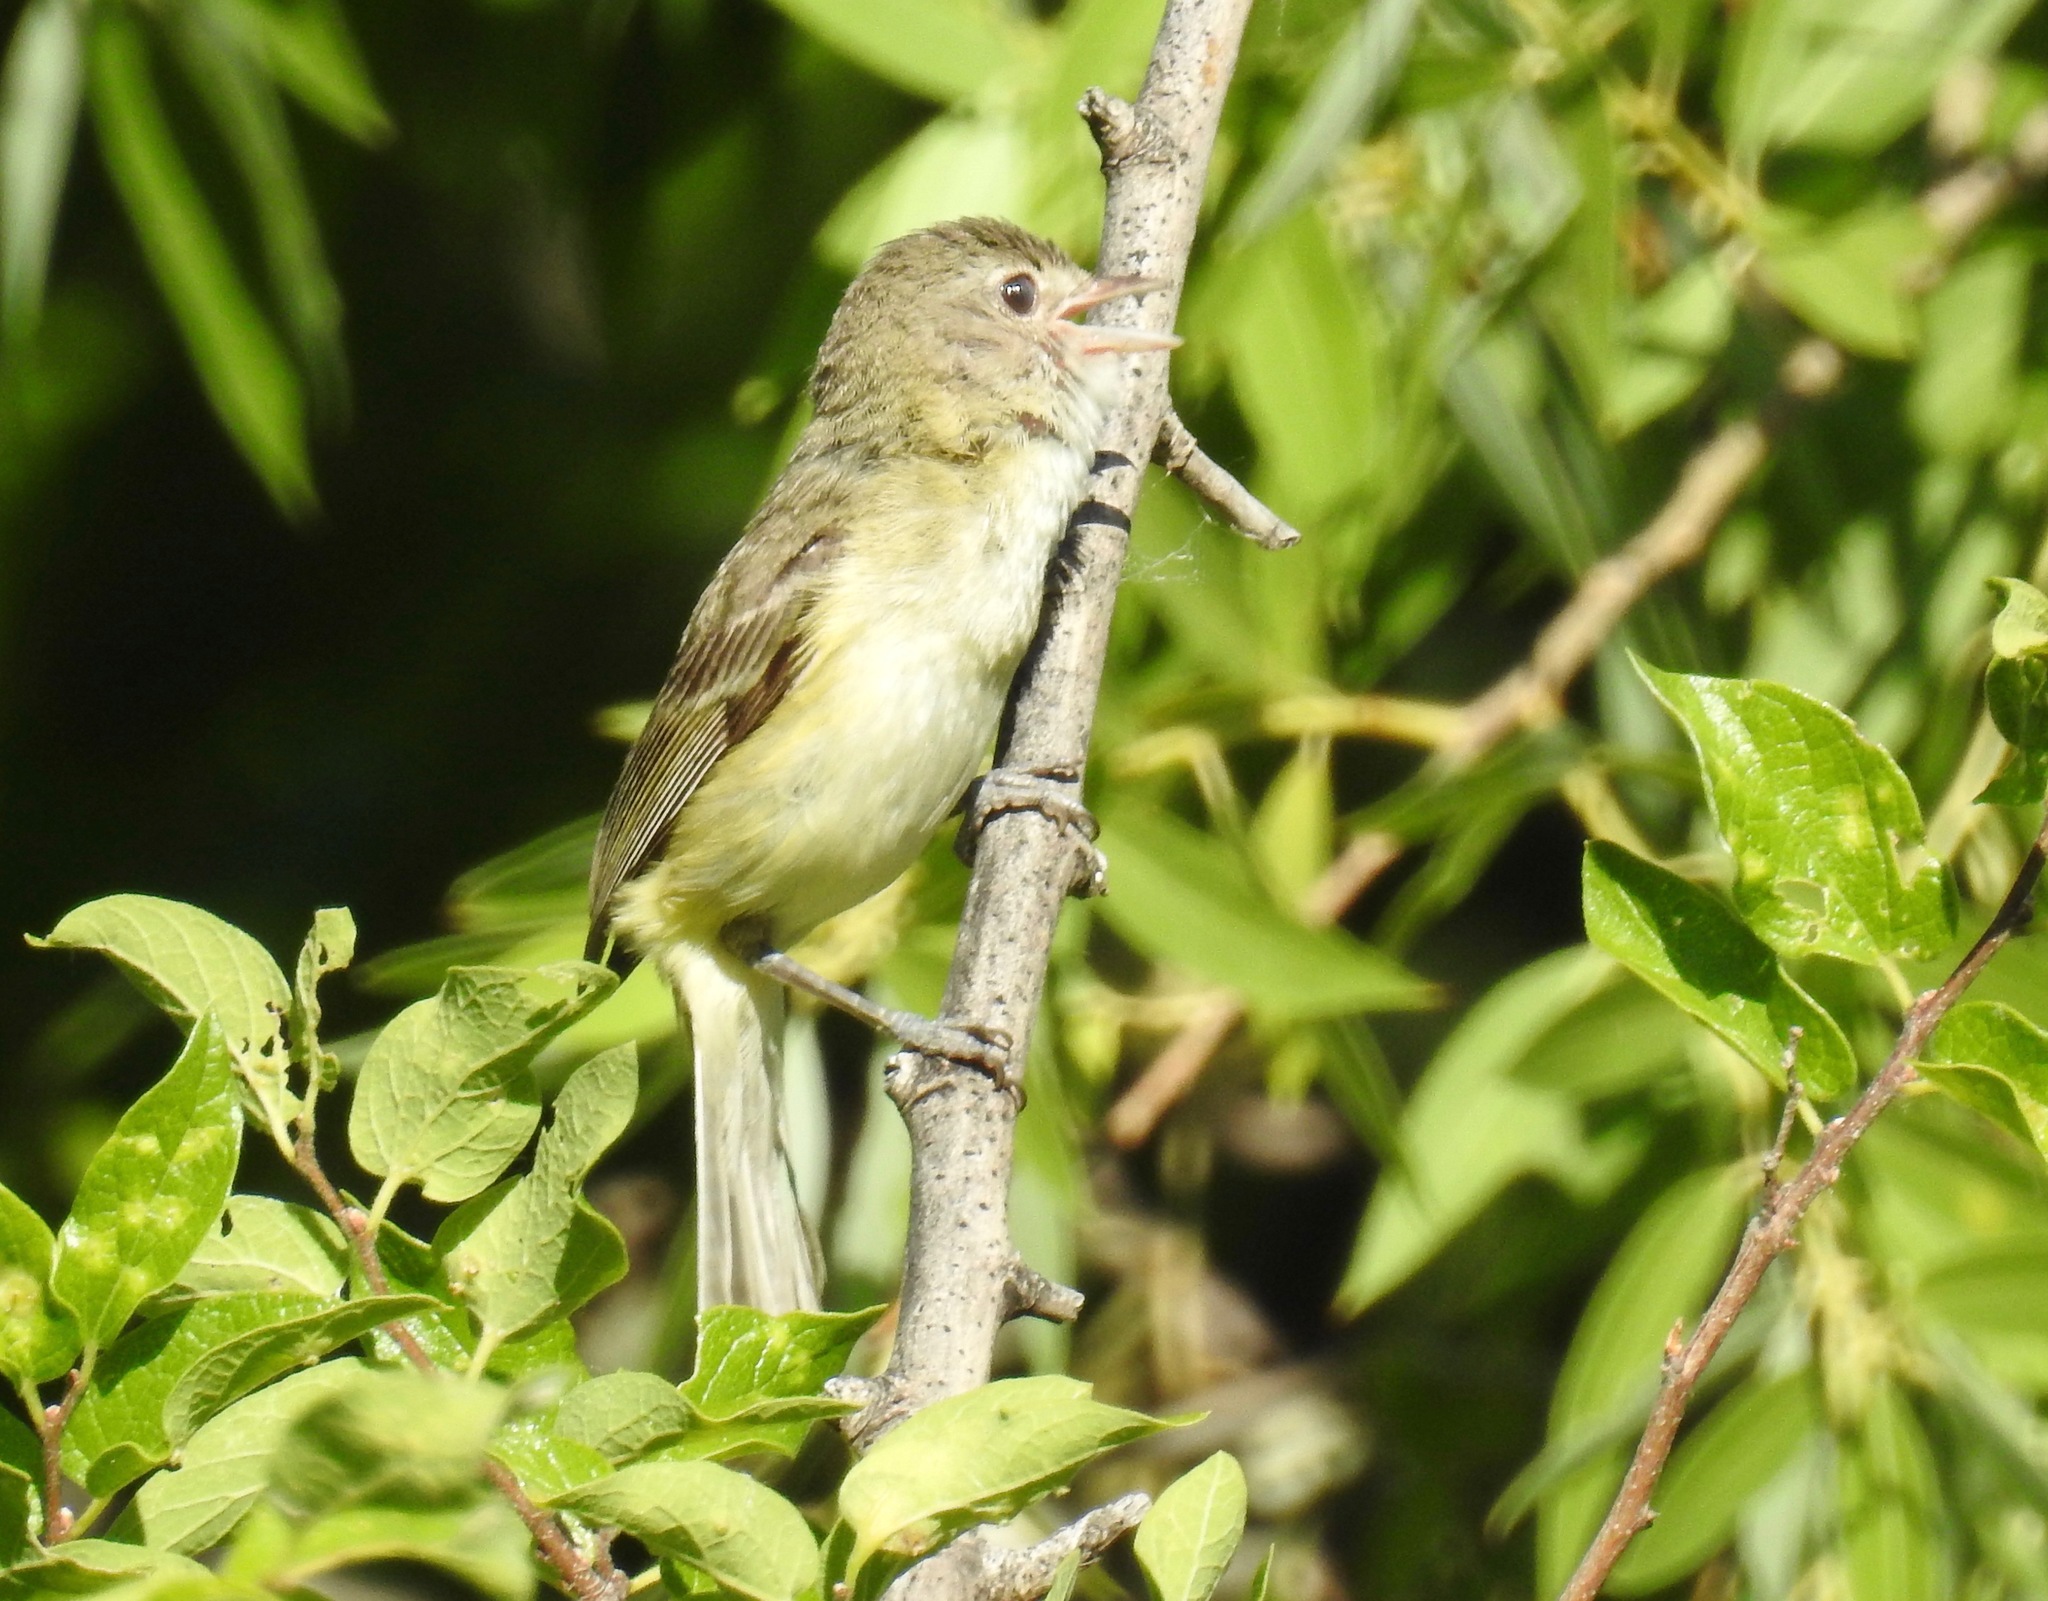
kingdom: Animalia
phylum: Chordata
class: Aves
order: Passeriformes
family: Vireonidae
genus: Vireo
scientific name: Vireo bellii
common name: Bell's vireo
